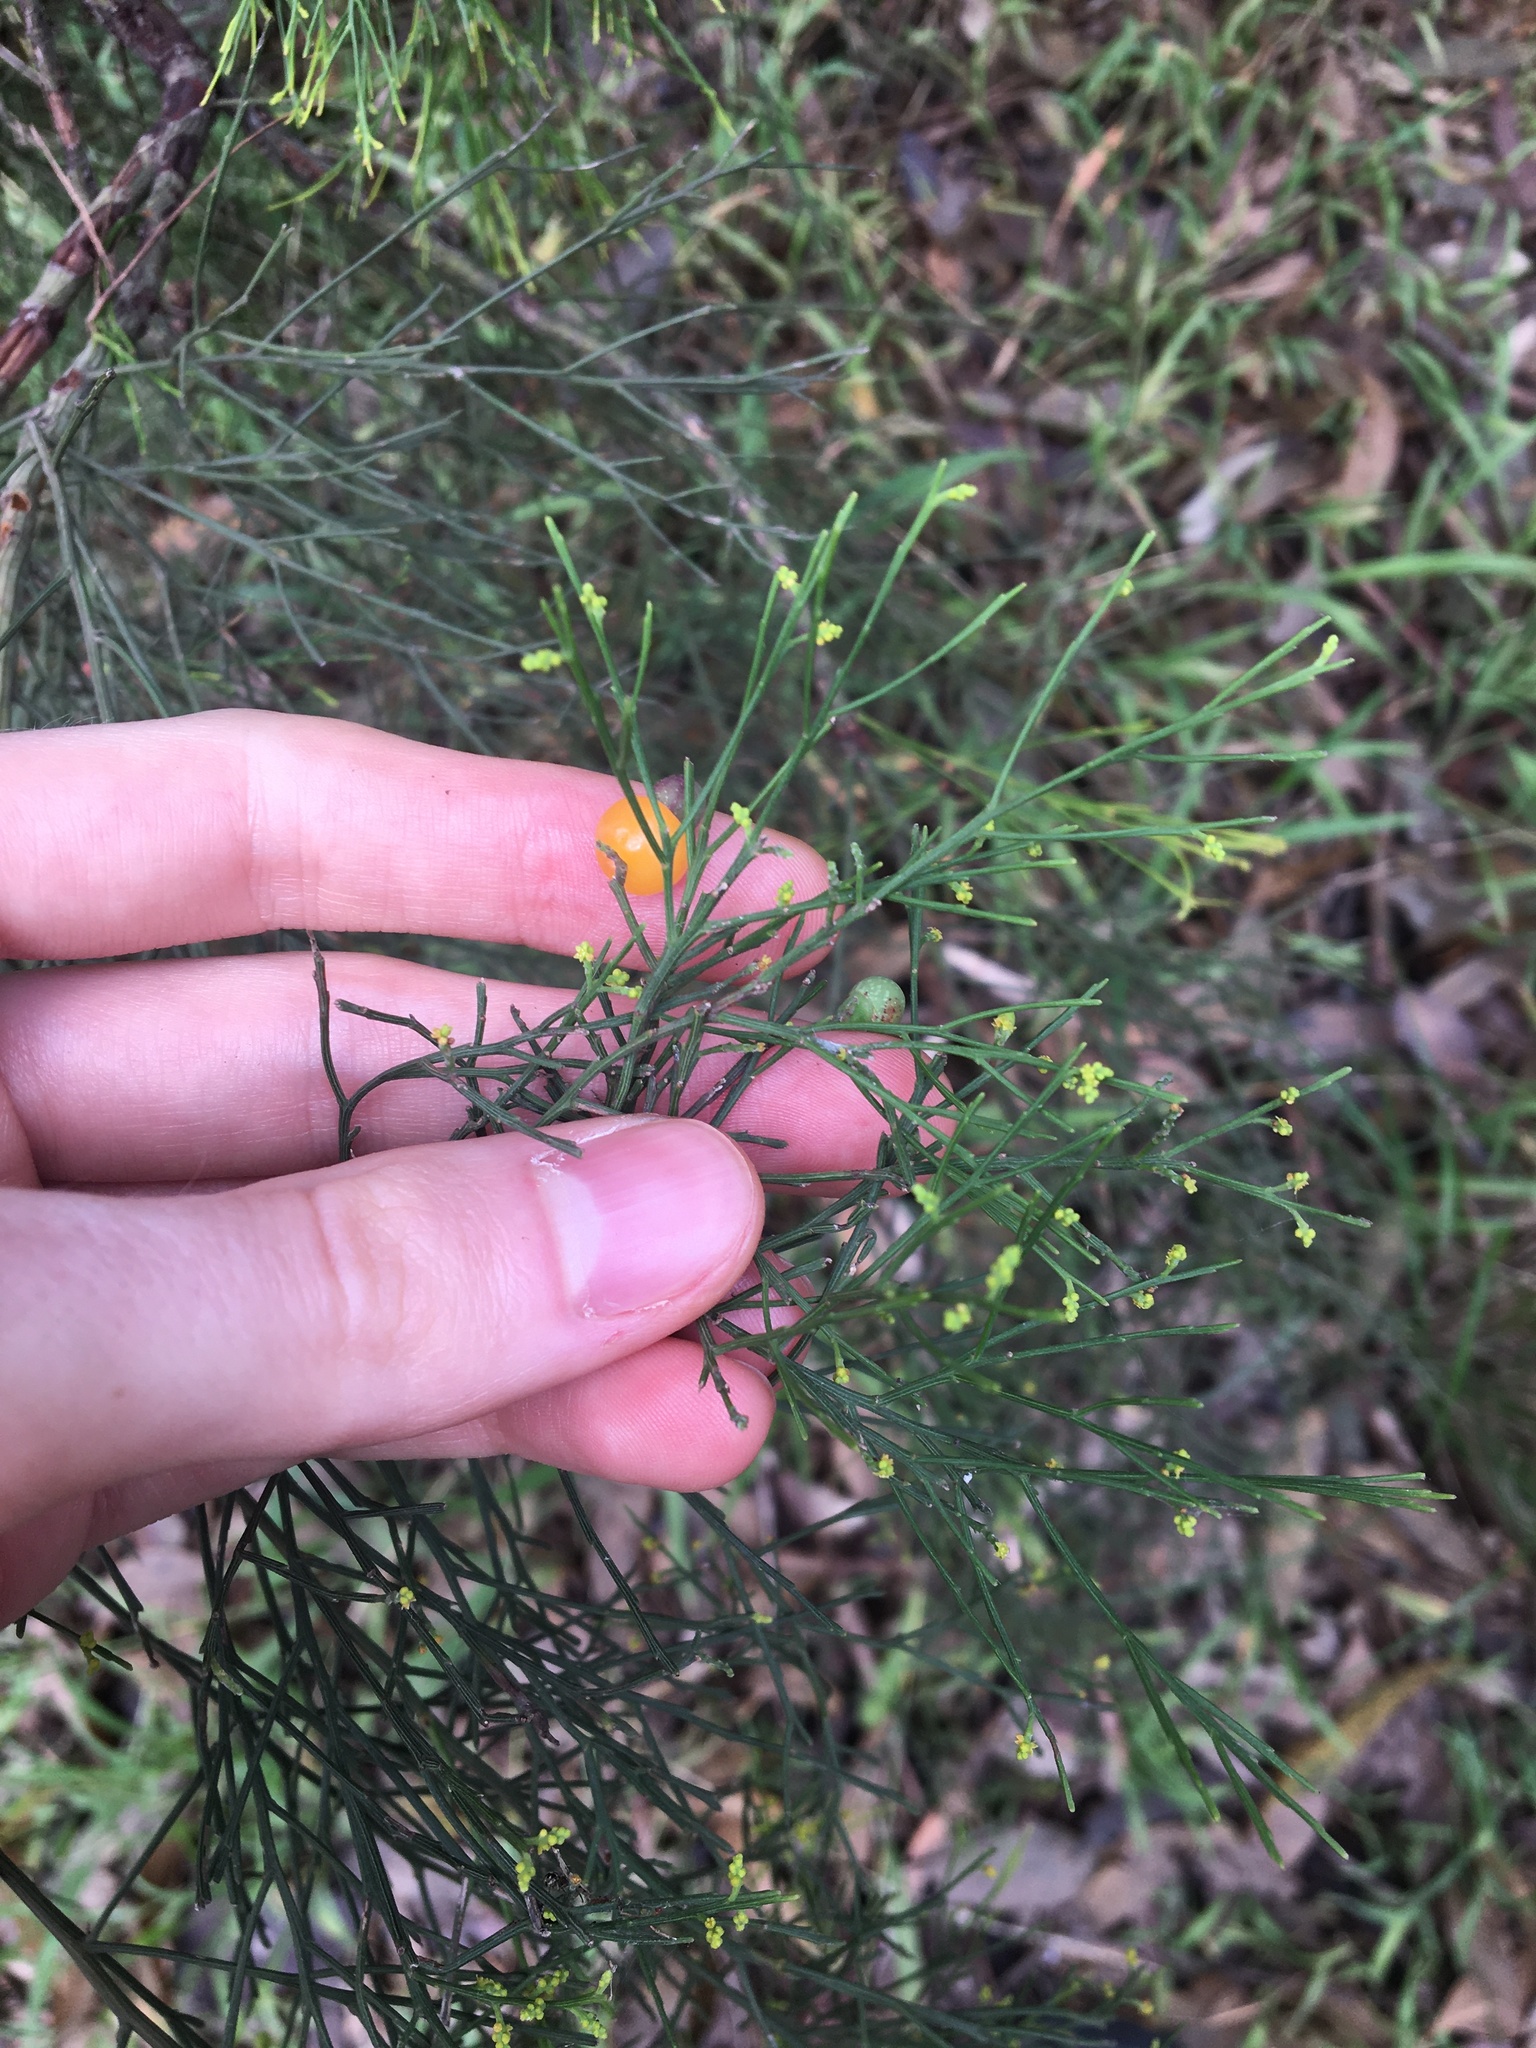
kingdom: Plantae
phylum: Tracheophyta
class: Magnoliopsida
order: Santalales
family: Santalaceae
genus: Exocarpos
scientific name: Exocarpos cupressiformis
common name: Cherry ballart
